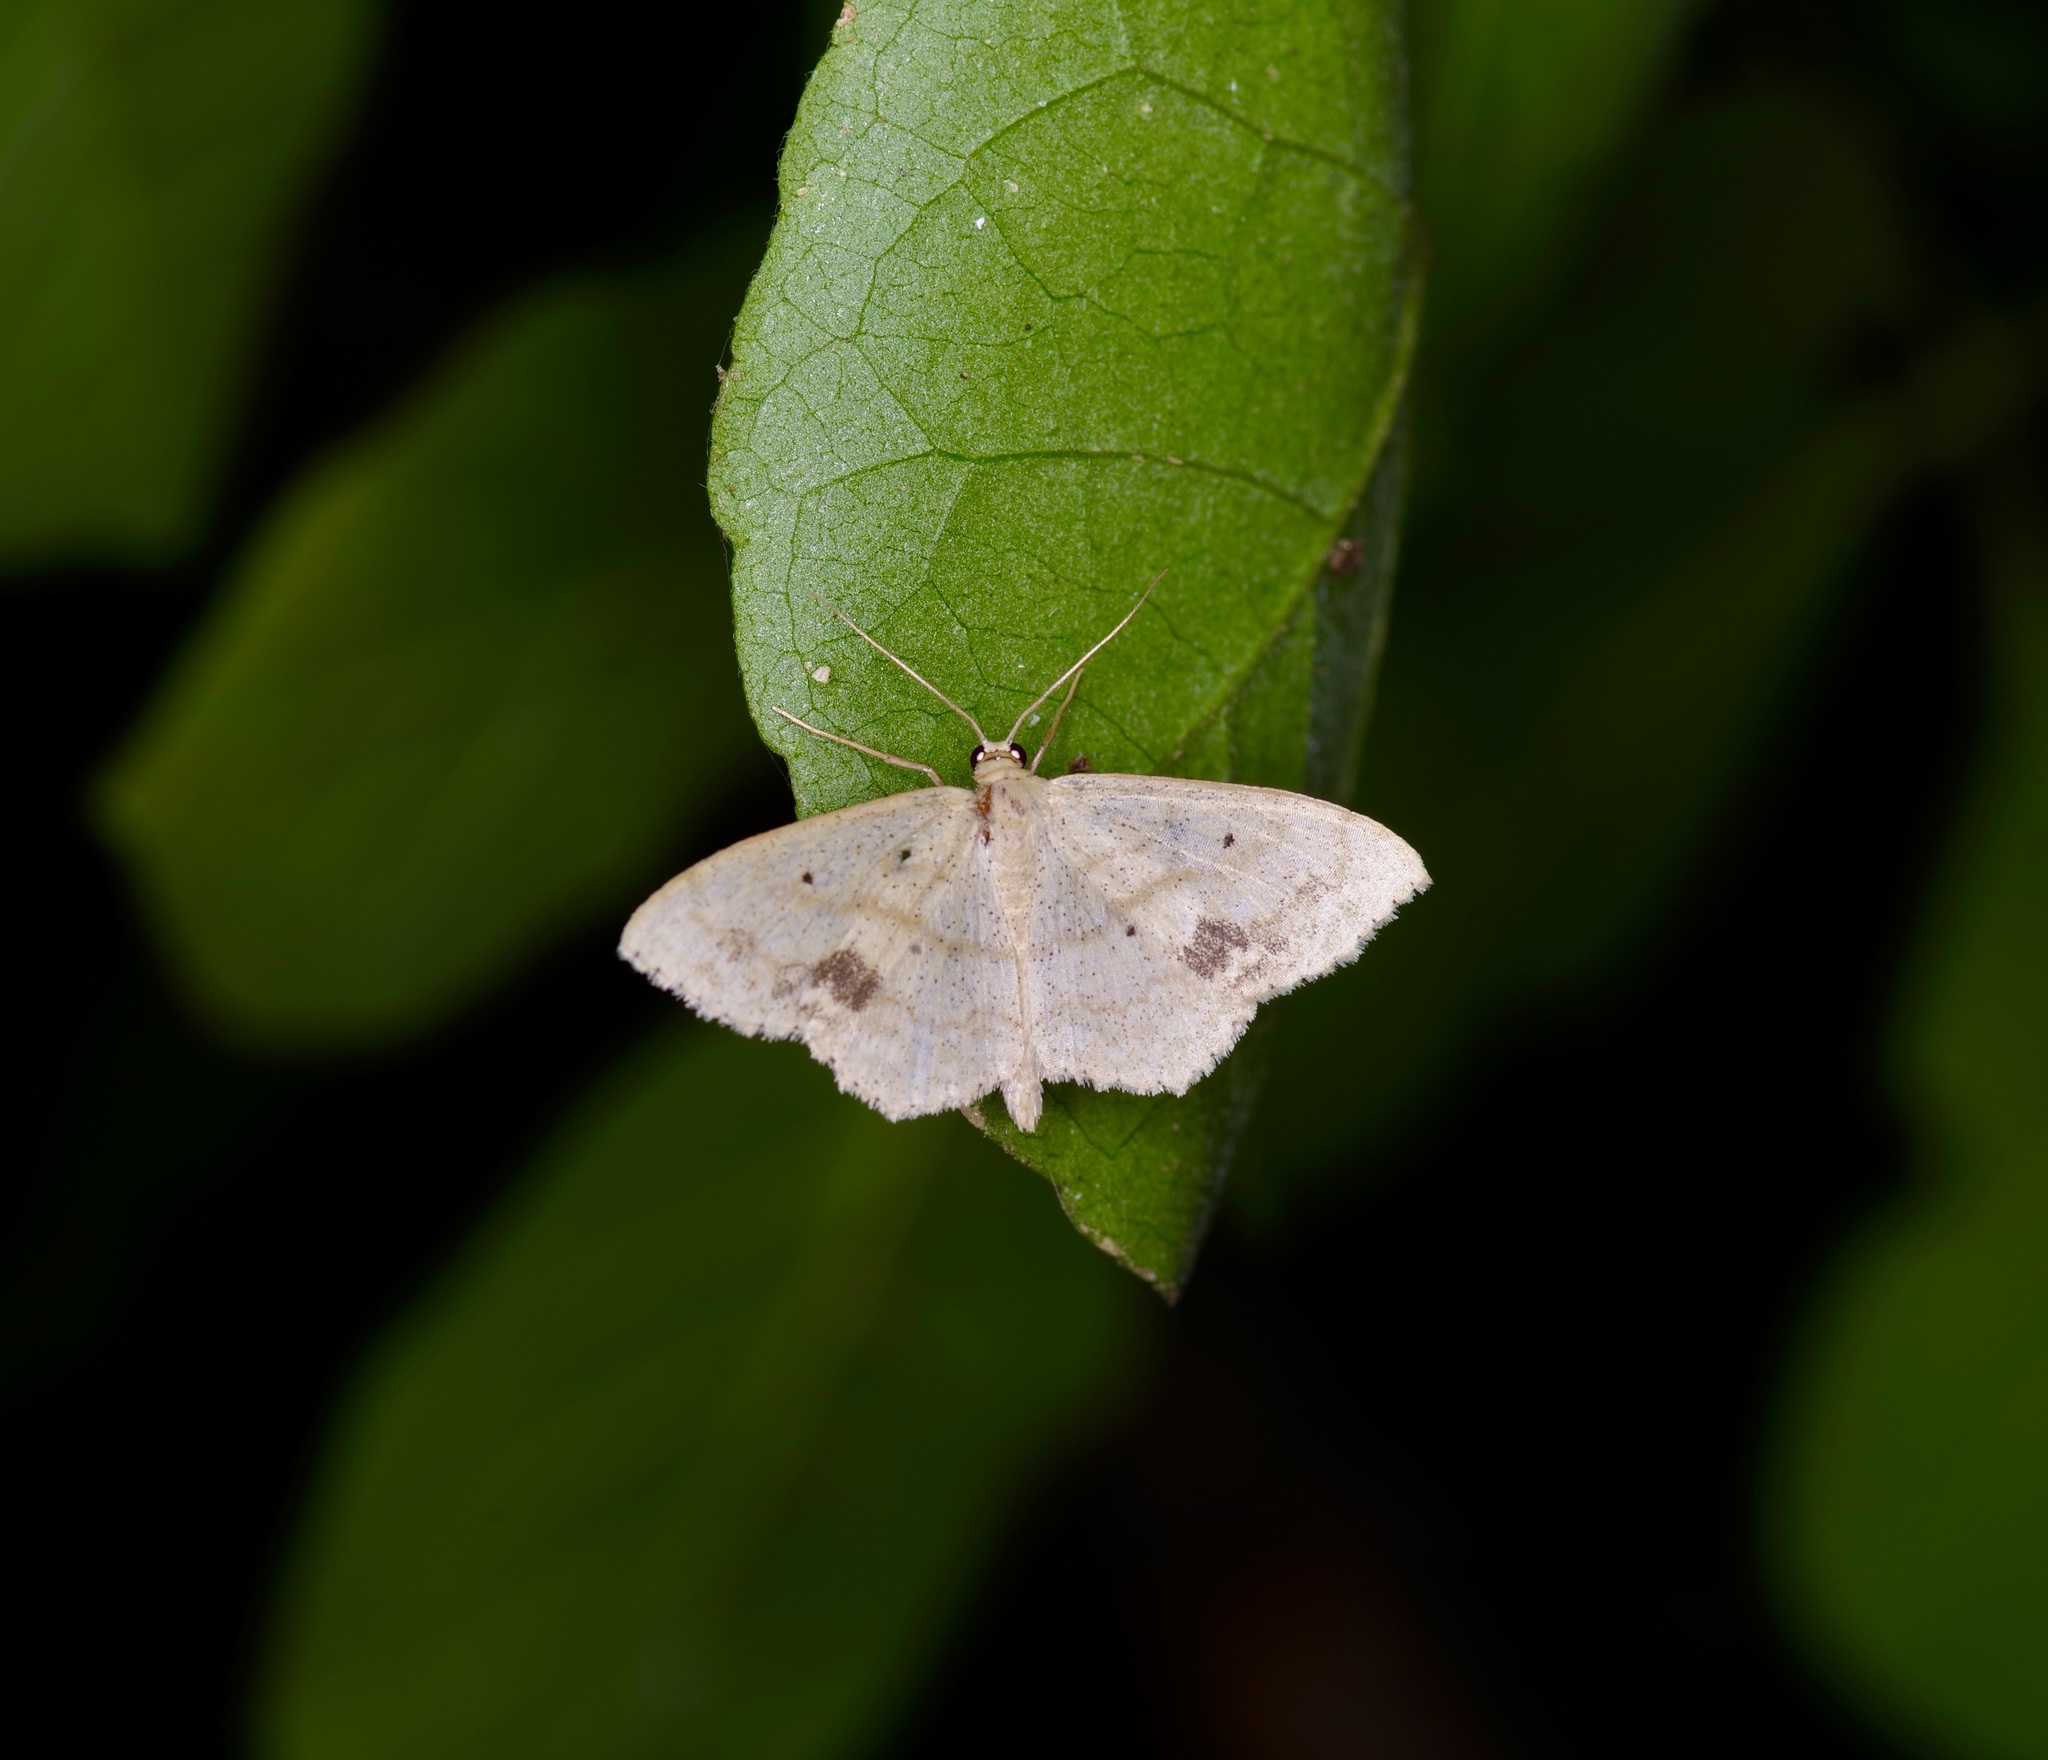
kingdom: Animalia
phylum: Arthropoda
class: Insecta
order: Lepidoptera
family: Geometridae
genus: Scopula
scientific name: Scopula compensata
